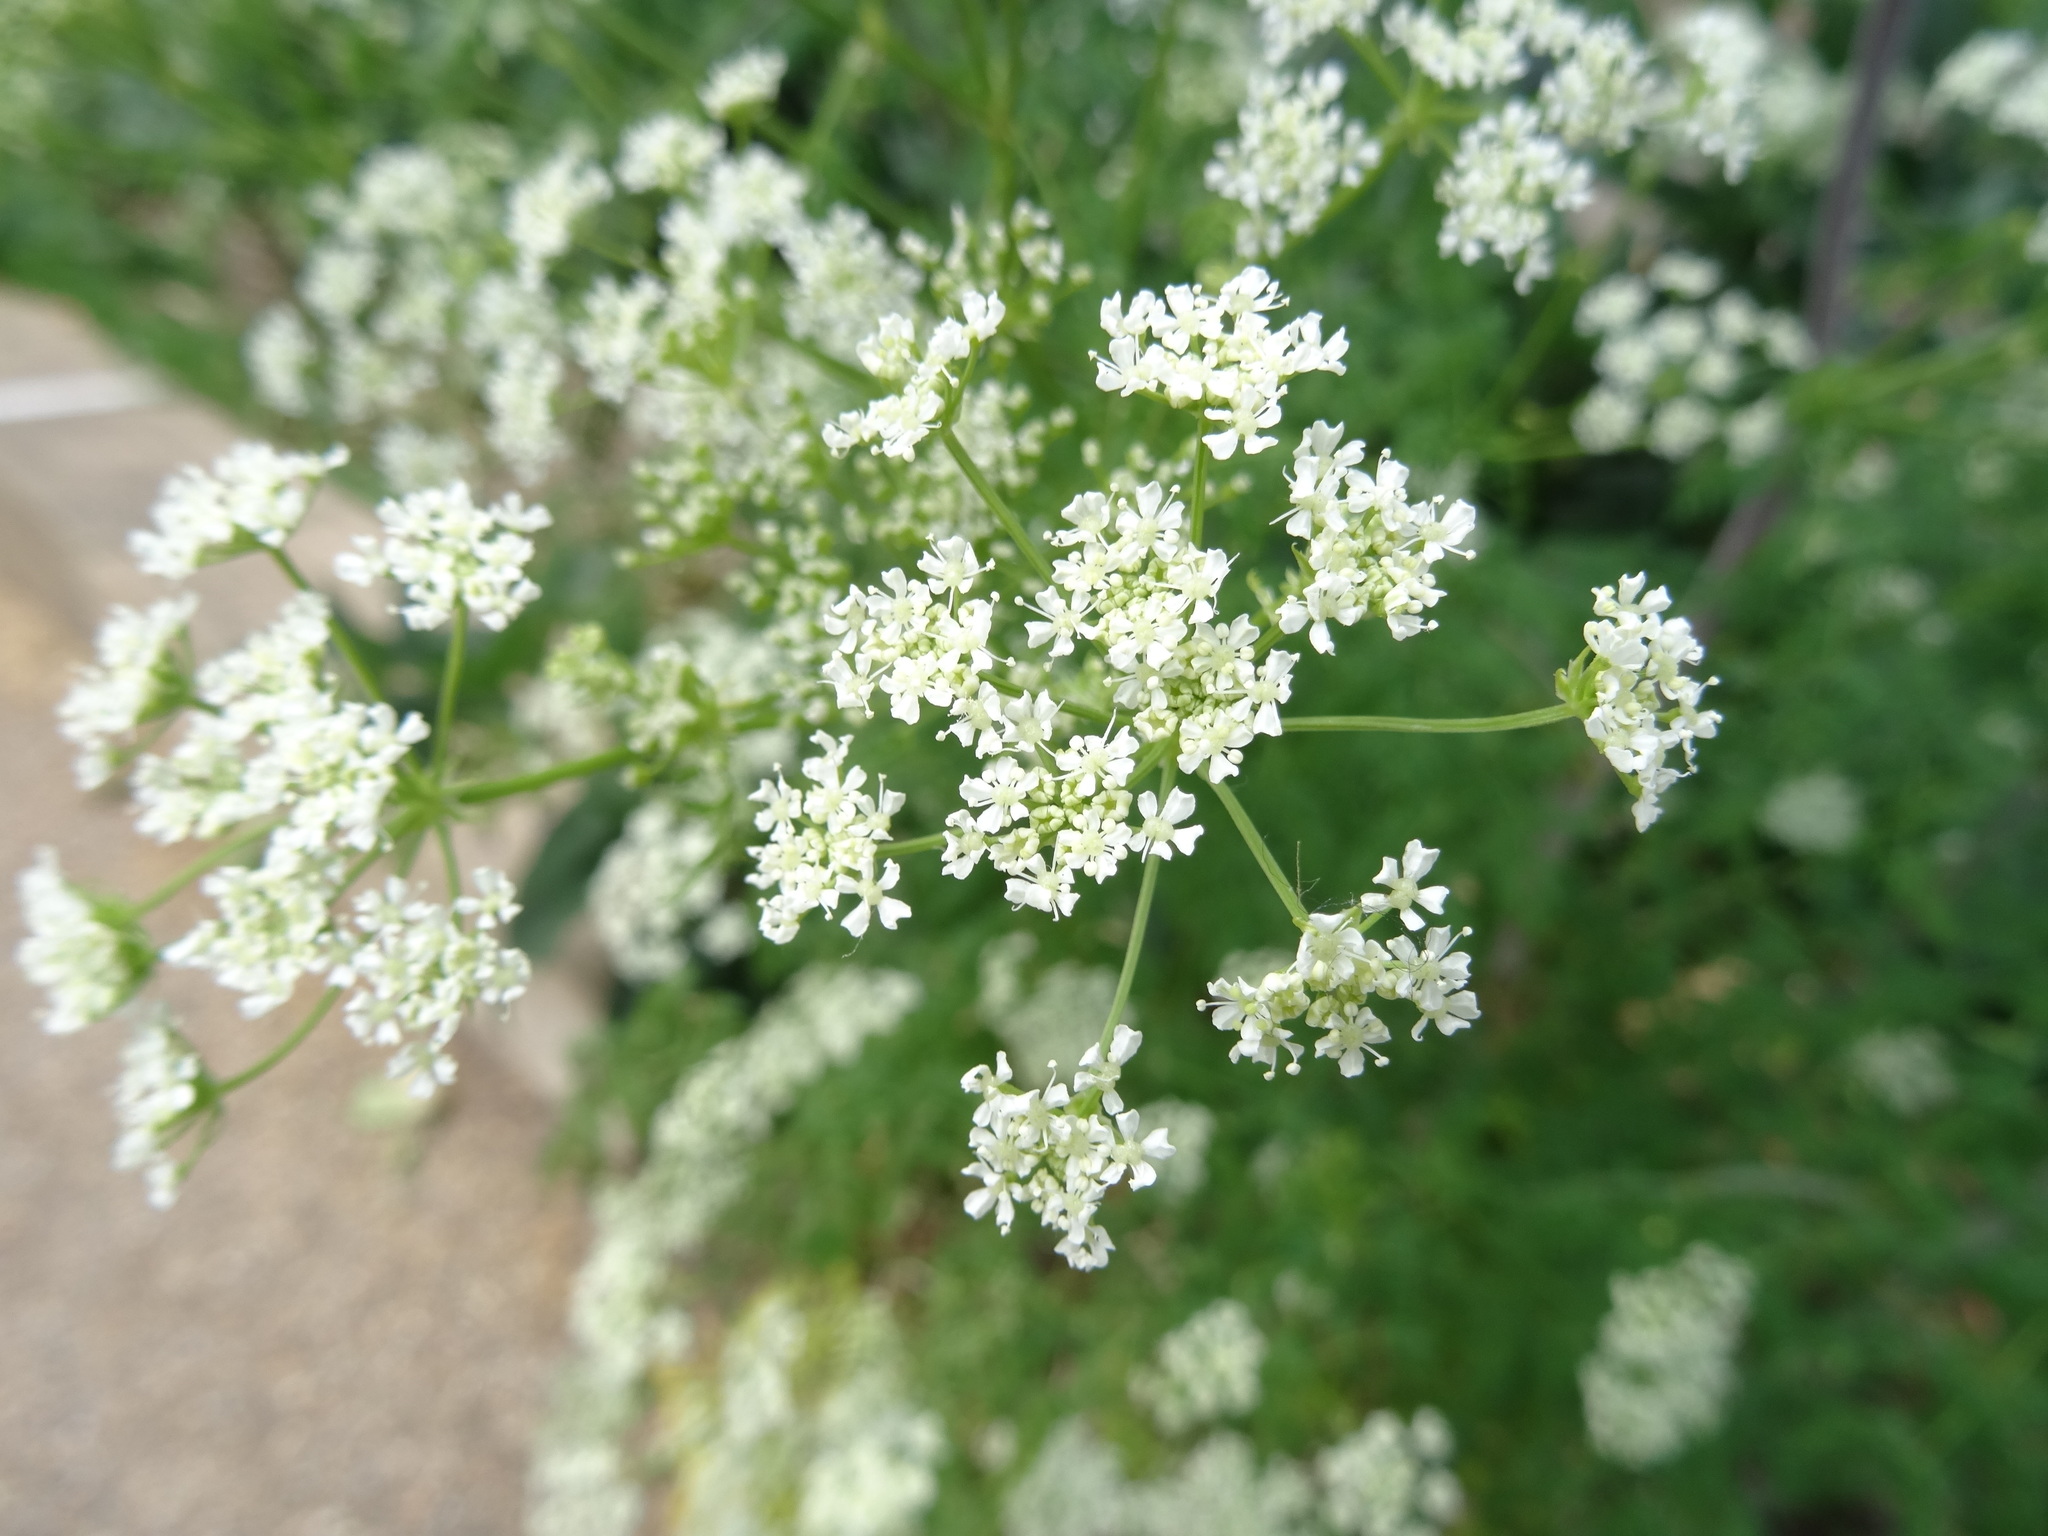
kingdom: Plantae
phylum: Tracheophyta
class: Magnoliopsida
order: Apiales
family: Apiaceae
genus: Conium
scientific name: Conium maculatum
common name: Hemlock
